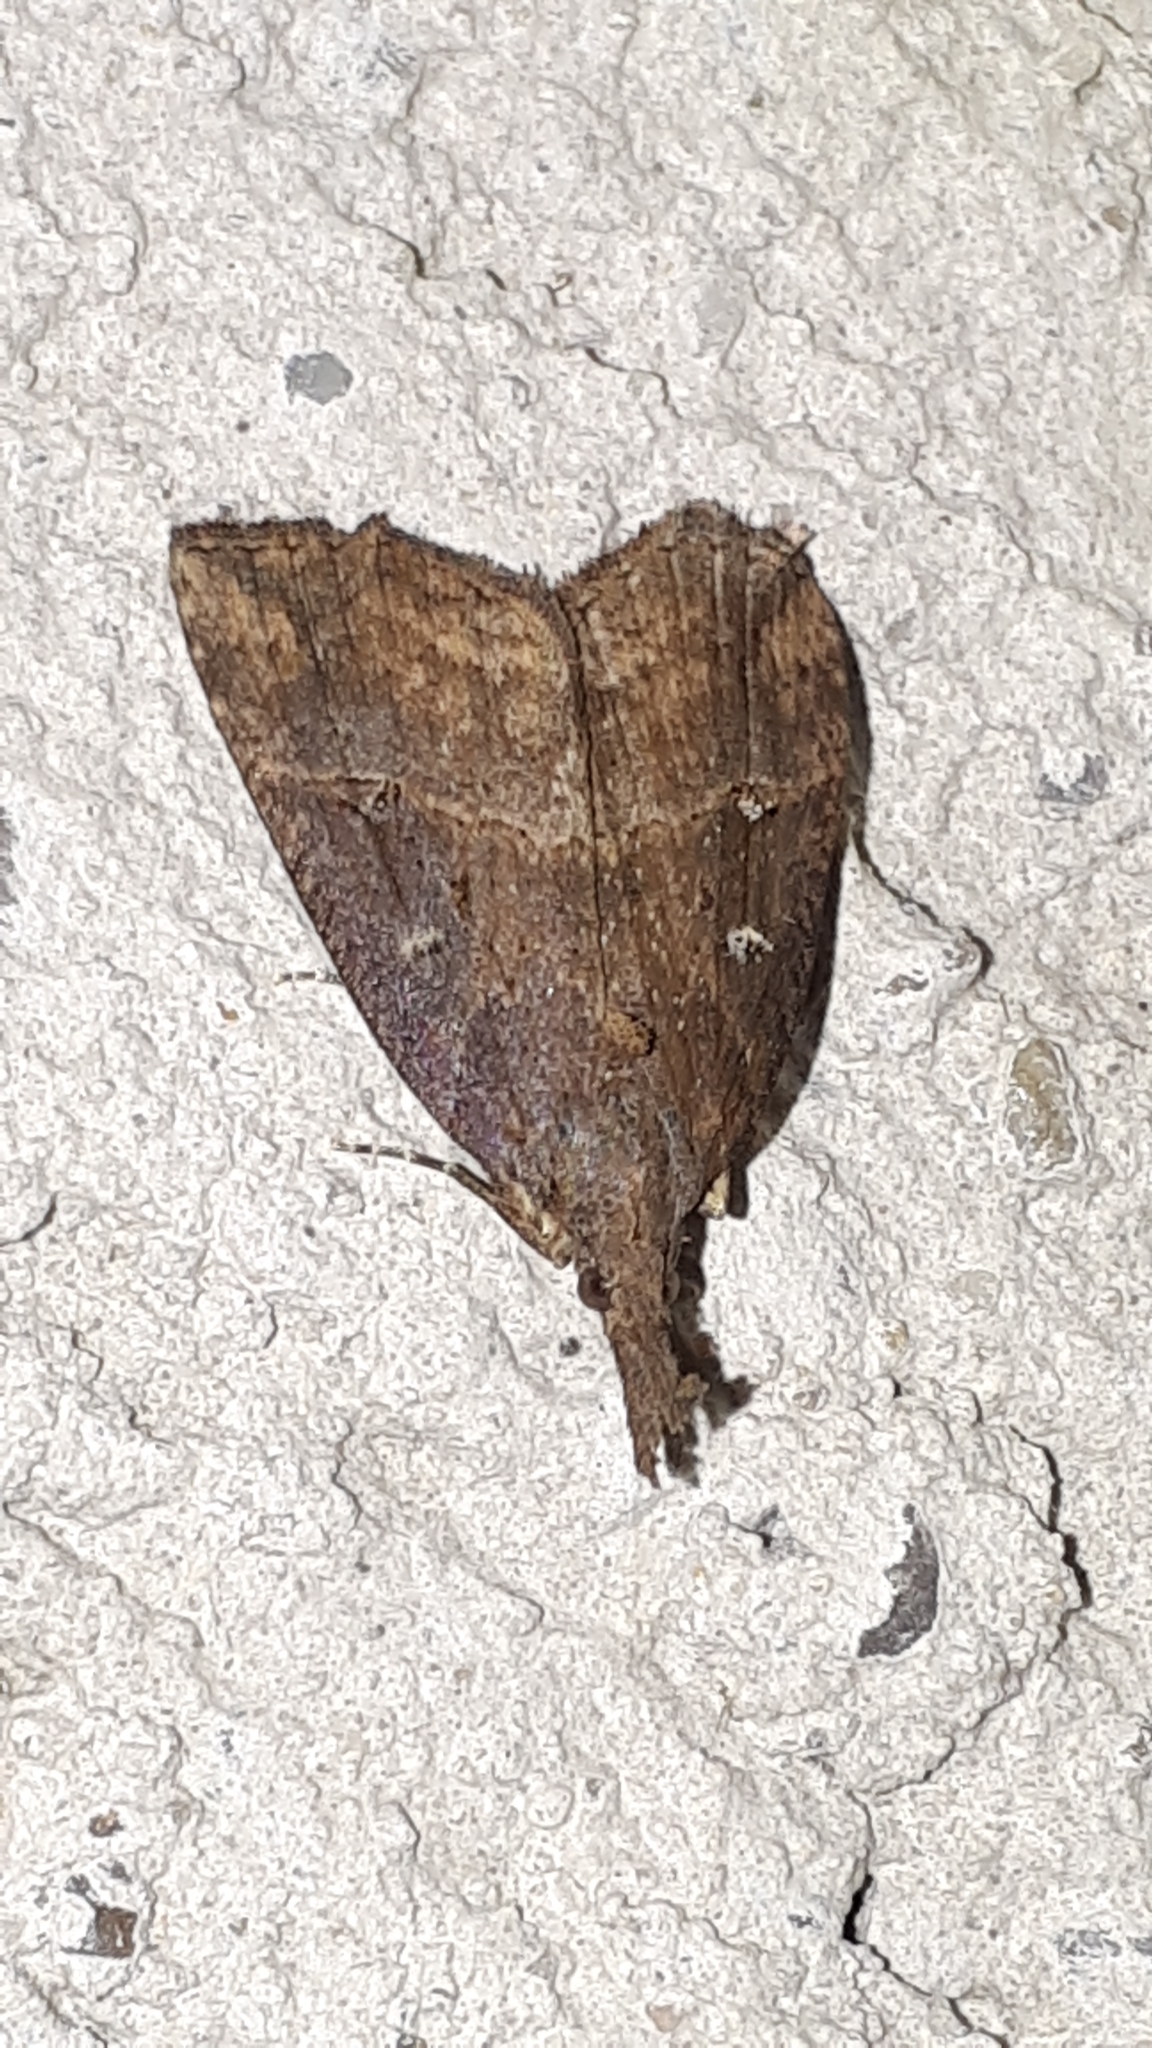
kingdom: Animalia
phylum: Arthropoda
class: Insecta
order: Lepidoptera
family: Erebidae
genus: Hypena
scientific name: Hypena rostralis
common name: Buttoned snout
